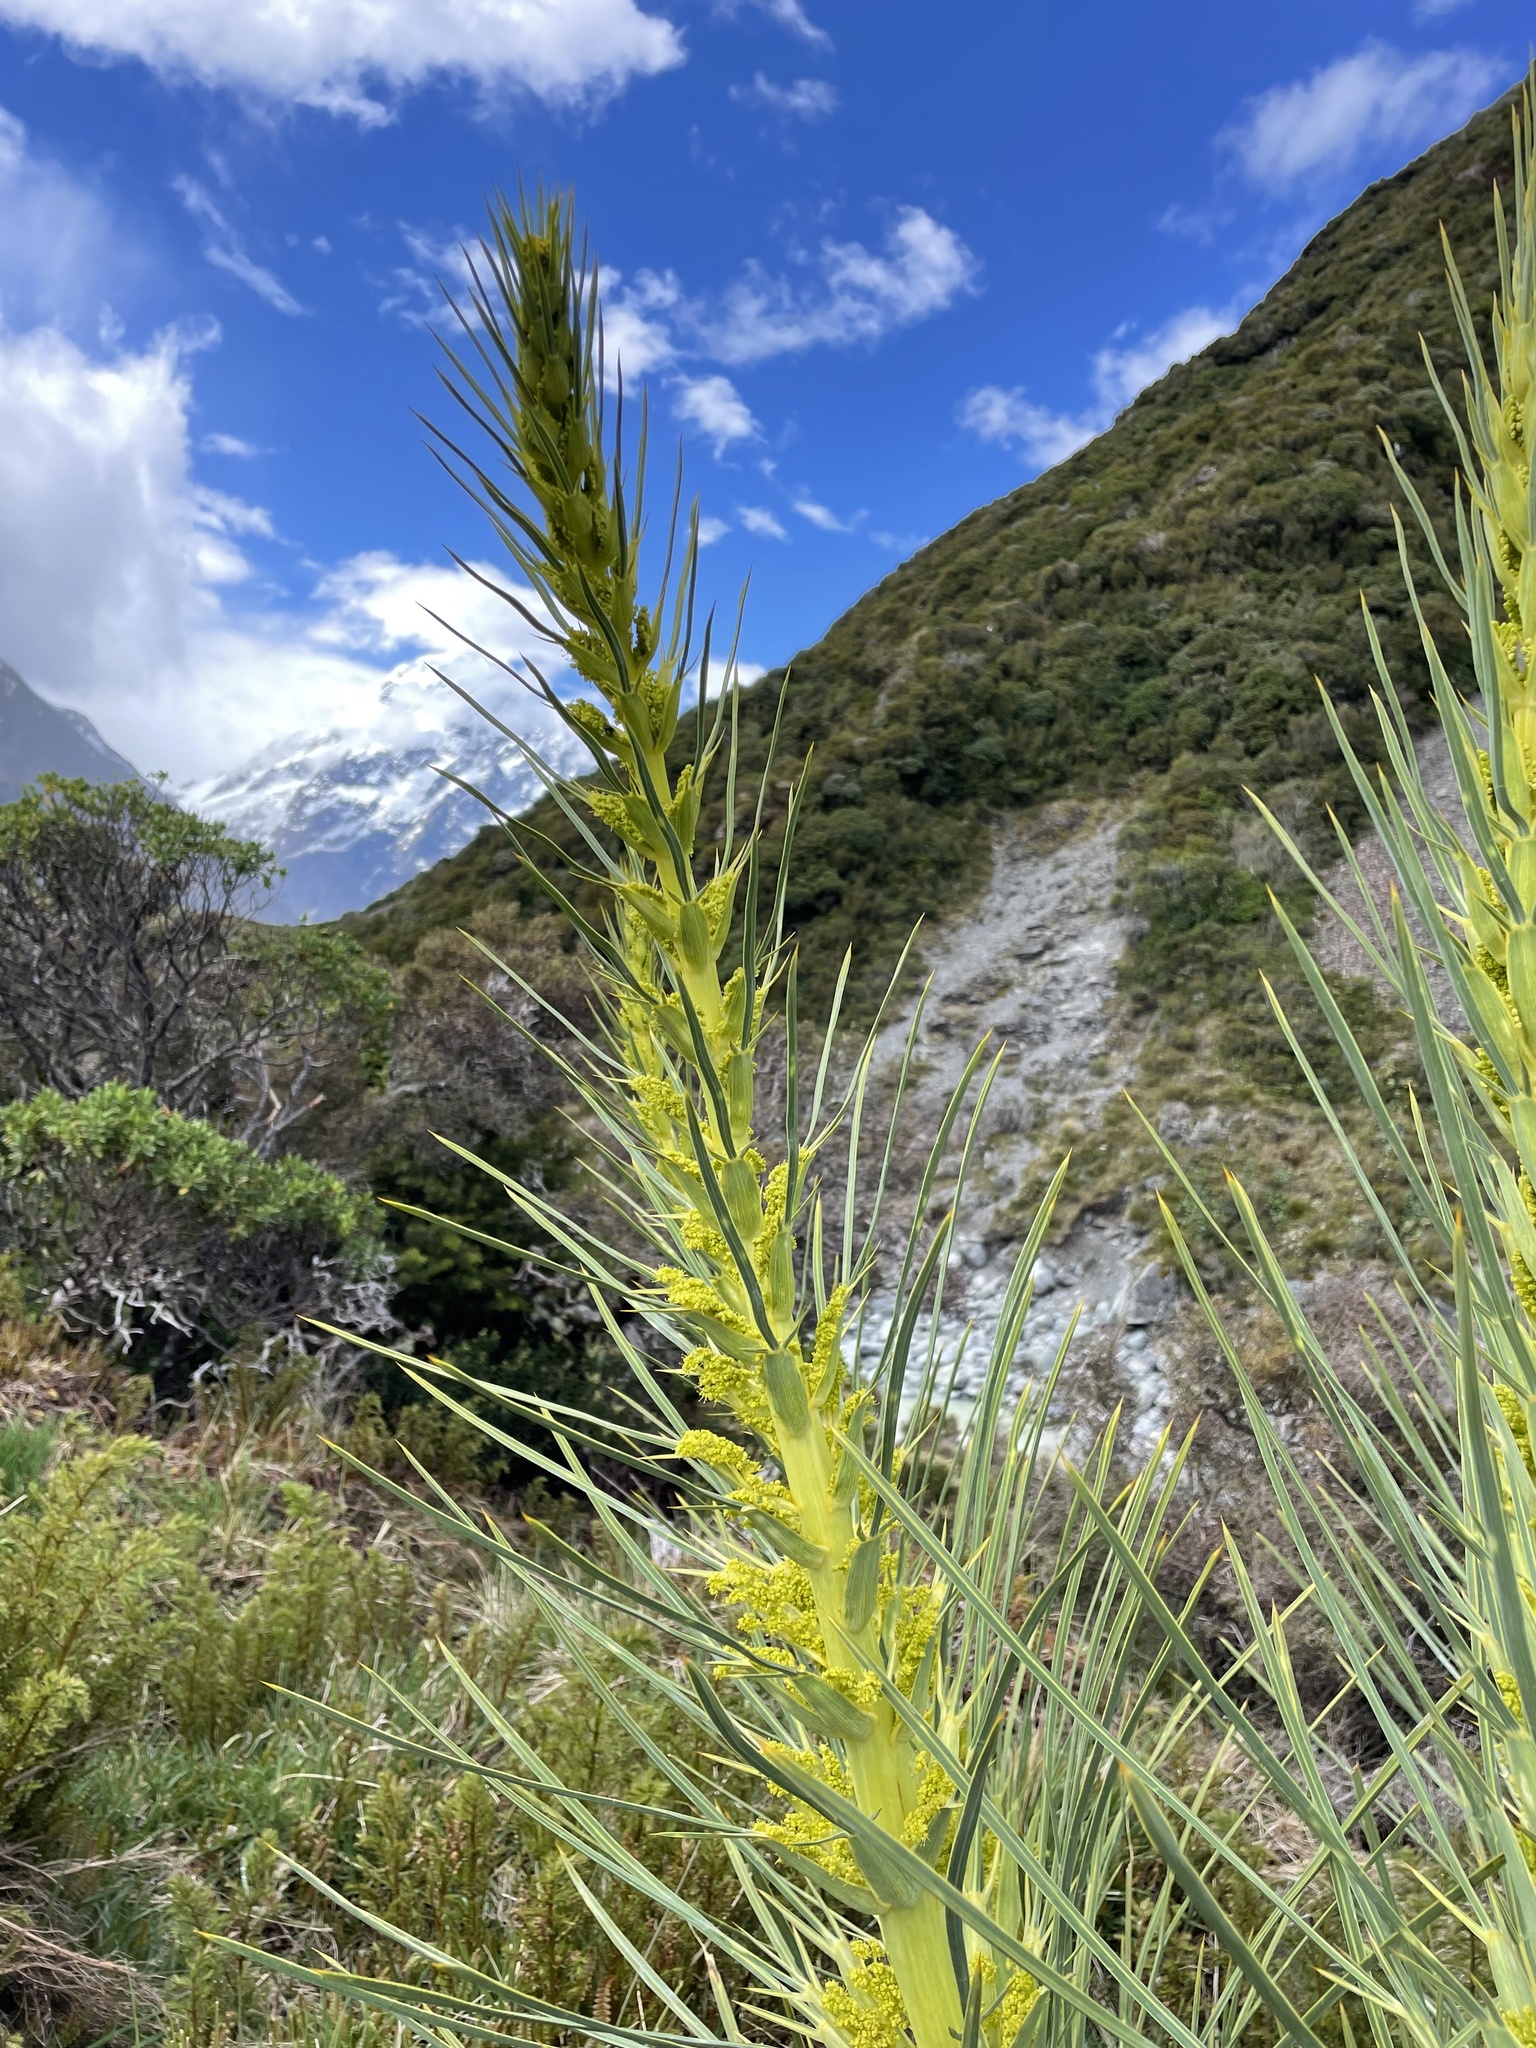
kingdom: Plantae
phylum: Tracheophyta
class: Magnoliopsida
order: Apiales
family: Apiaceae
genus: Aciphylla
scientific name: Aciphylla scott-thomsonii
